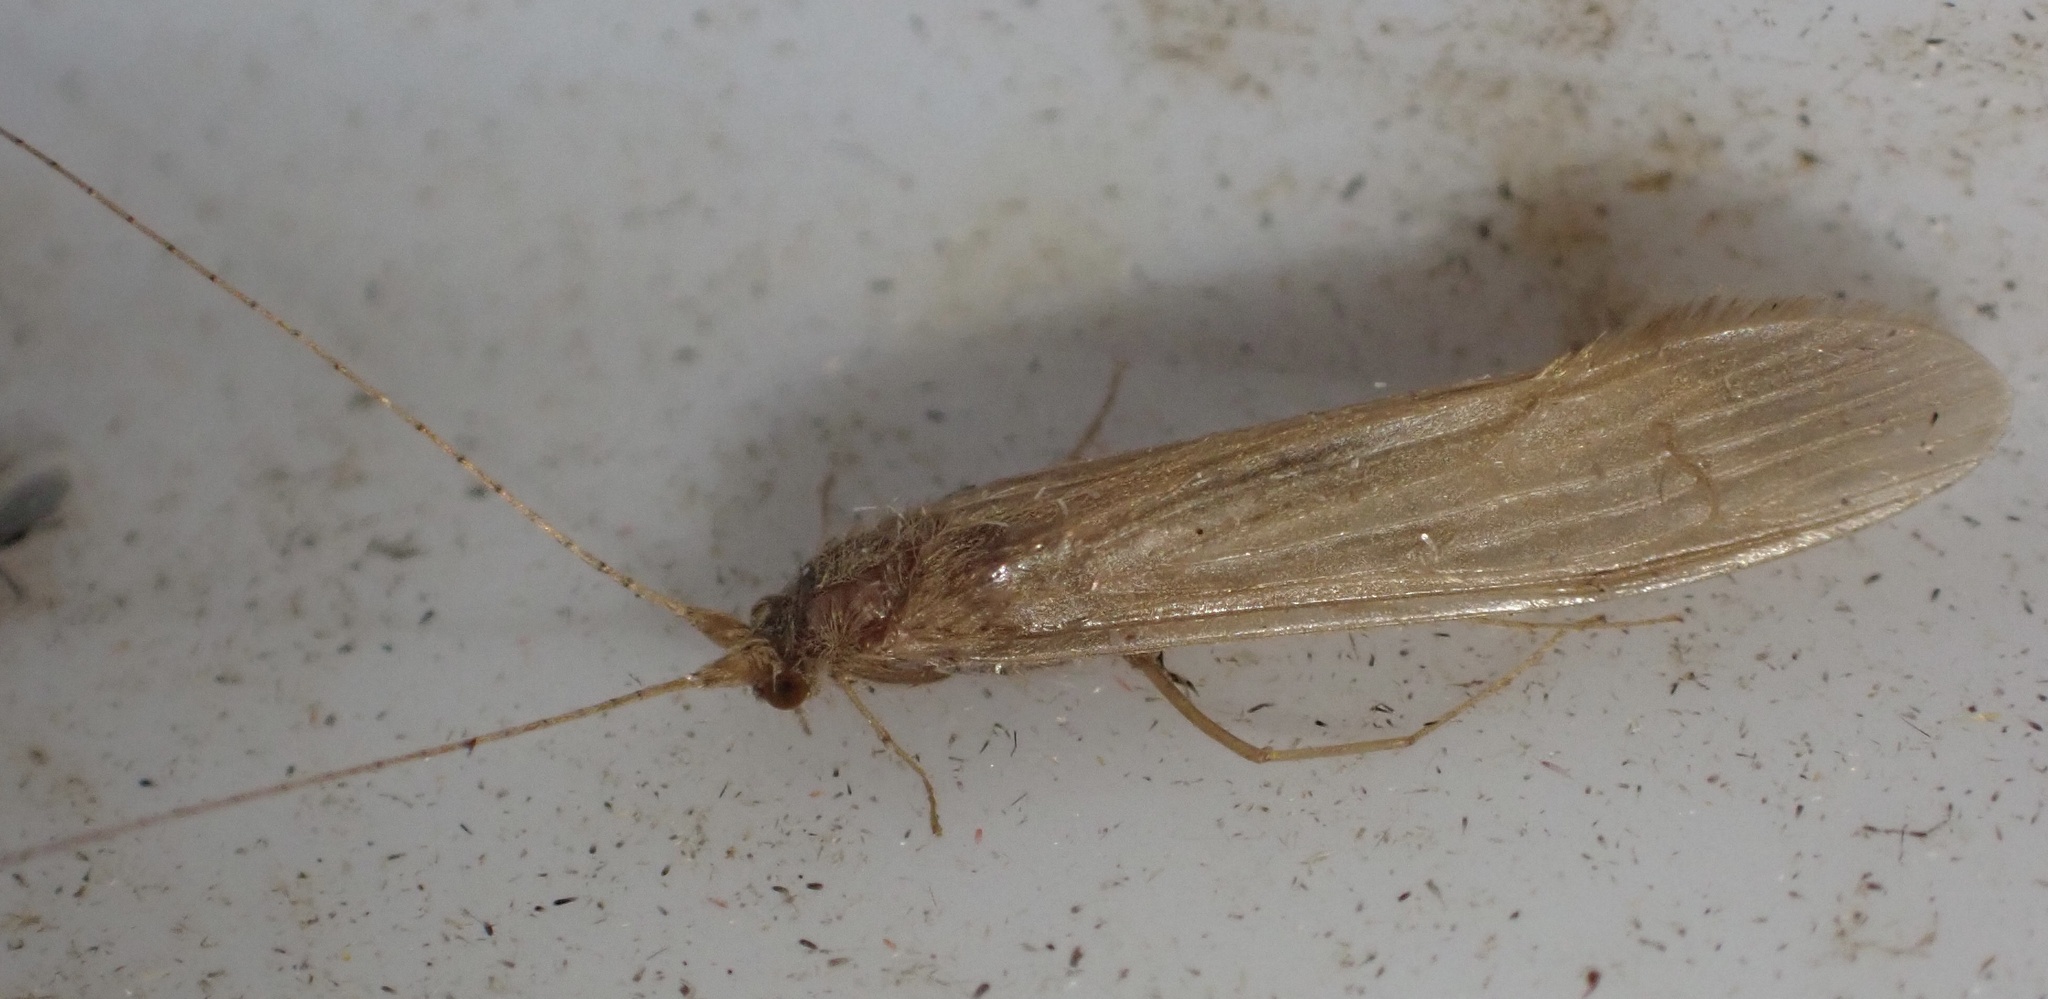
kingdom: Animalia
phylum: Arthropoda
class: Insecta
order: Trichoptera
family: Leptoceridae
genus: Oecetis
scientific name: Oecetis ochracea
